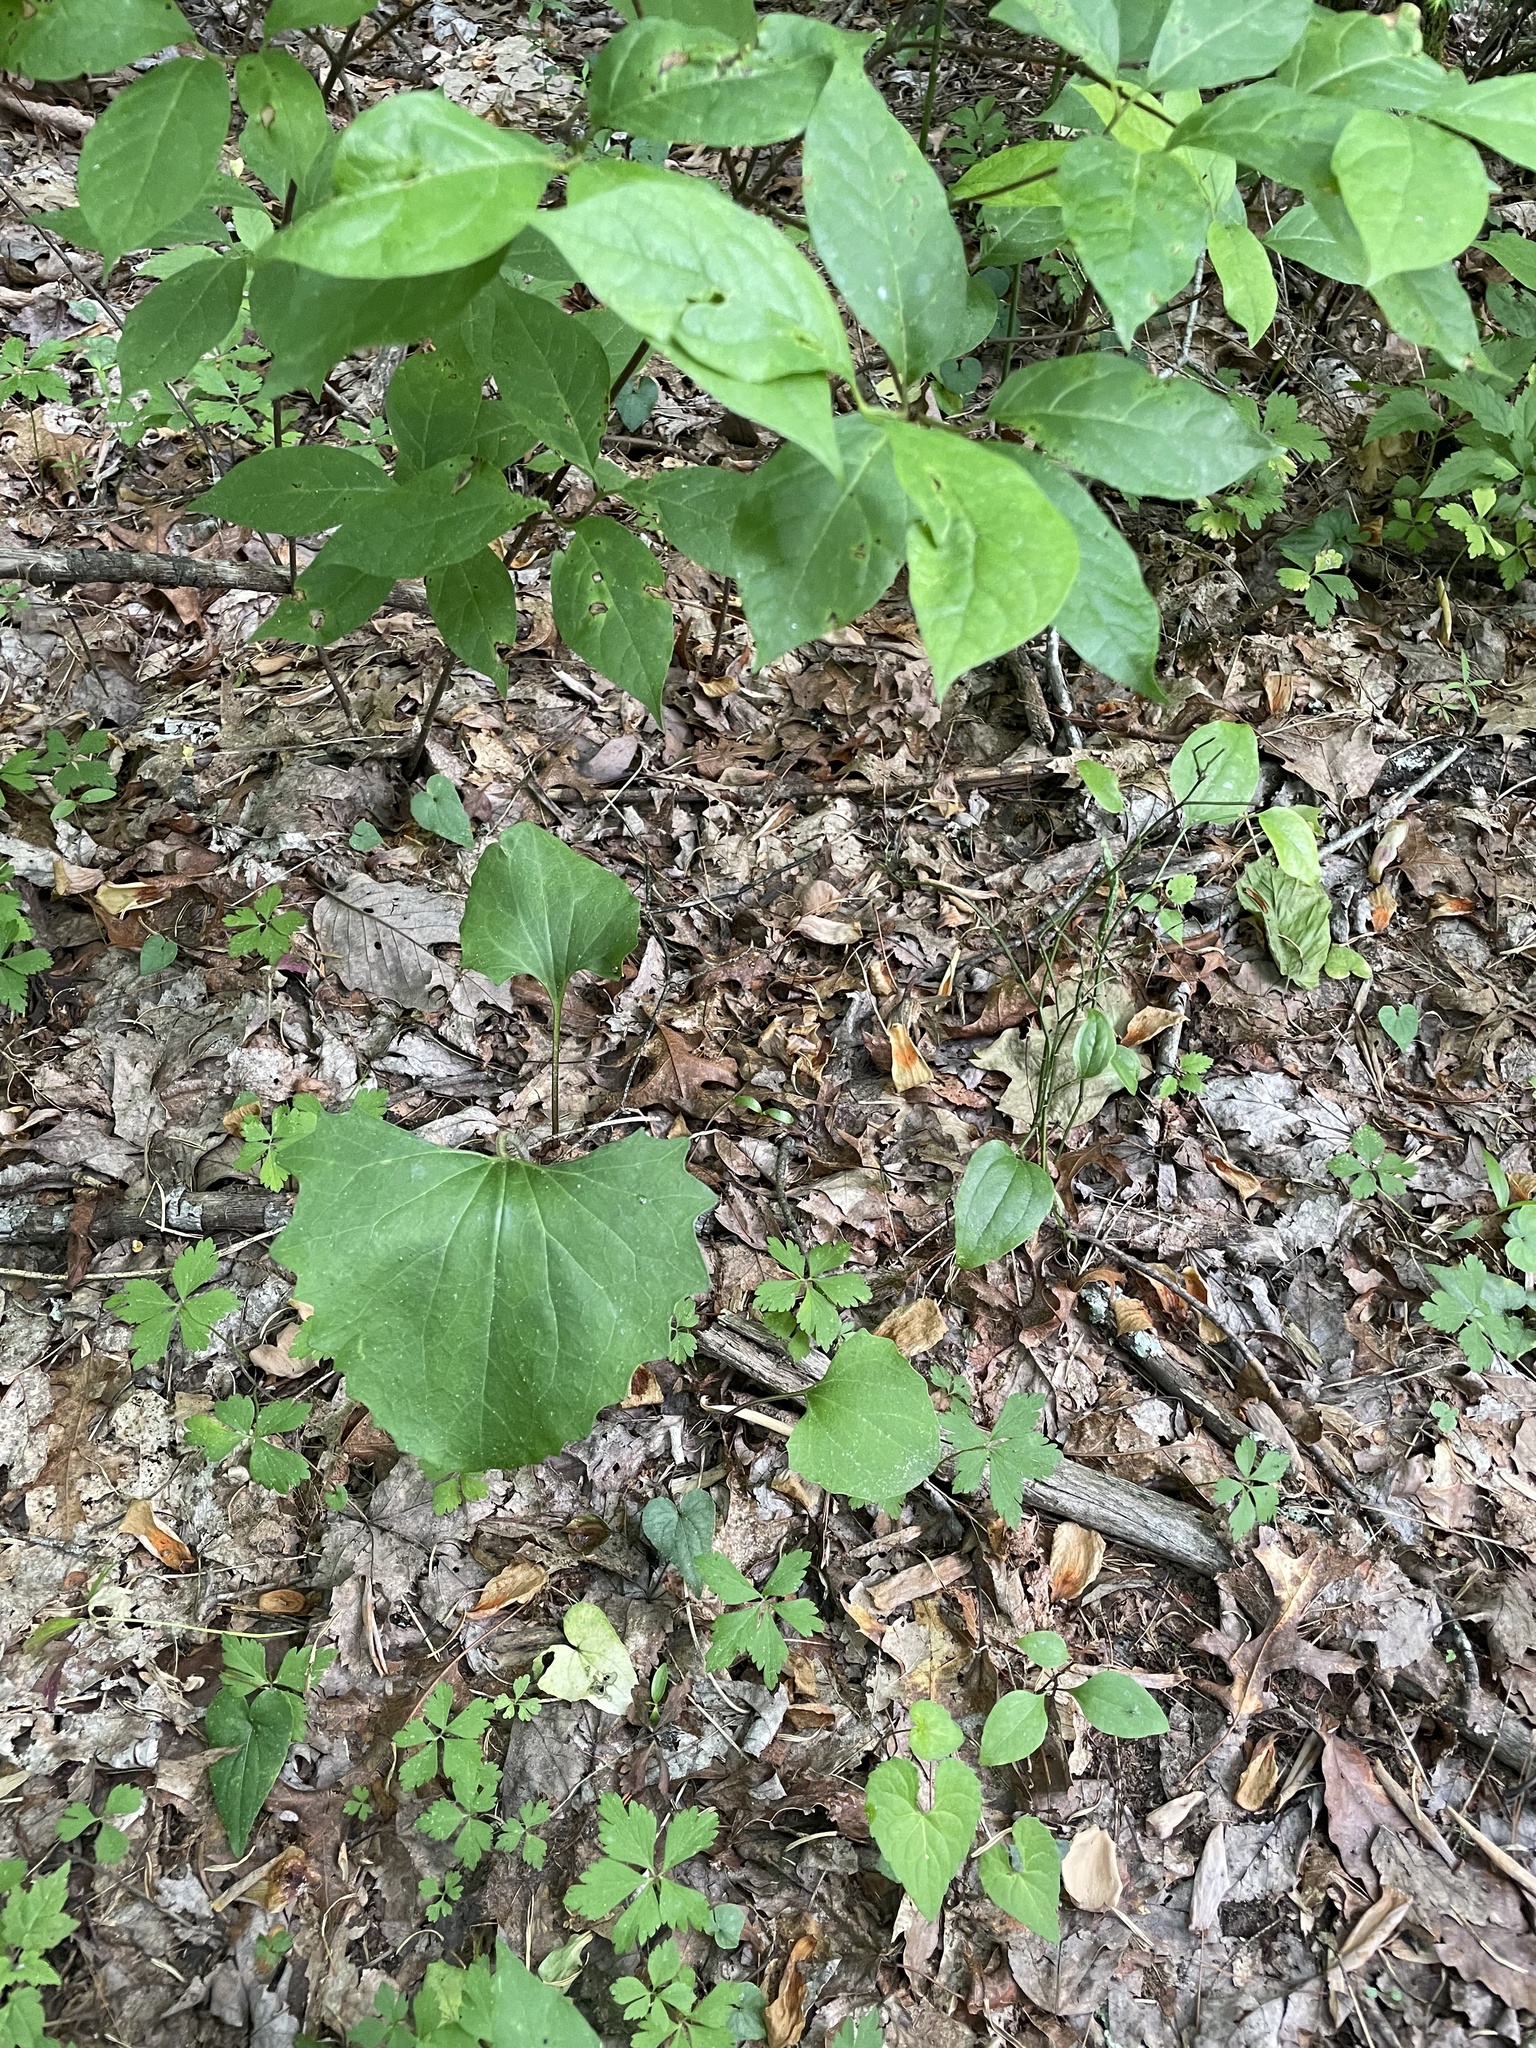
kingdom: Plantae
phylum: Tracheophyta
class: Magnoliopsida
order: Asterales
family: Asteraceae
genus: Arnoglossum
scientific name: Arnoglossum atriplicifolium
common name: Pale indian-plantain
